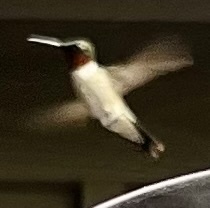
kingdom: Animalia
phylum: Chordata
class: Aves
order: Apodiformes
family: Trochilidae
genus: Archilochus
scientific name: Archilochus colubris
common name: Ruby-throated hummingbird
